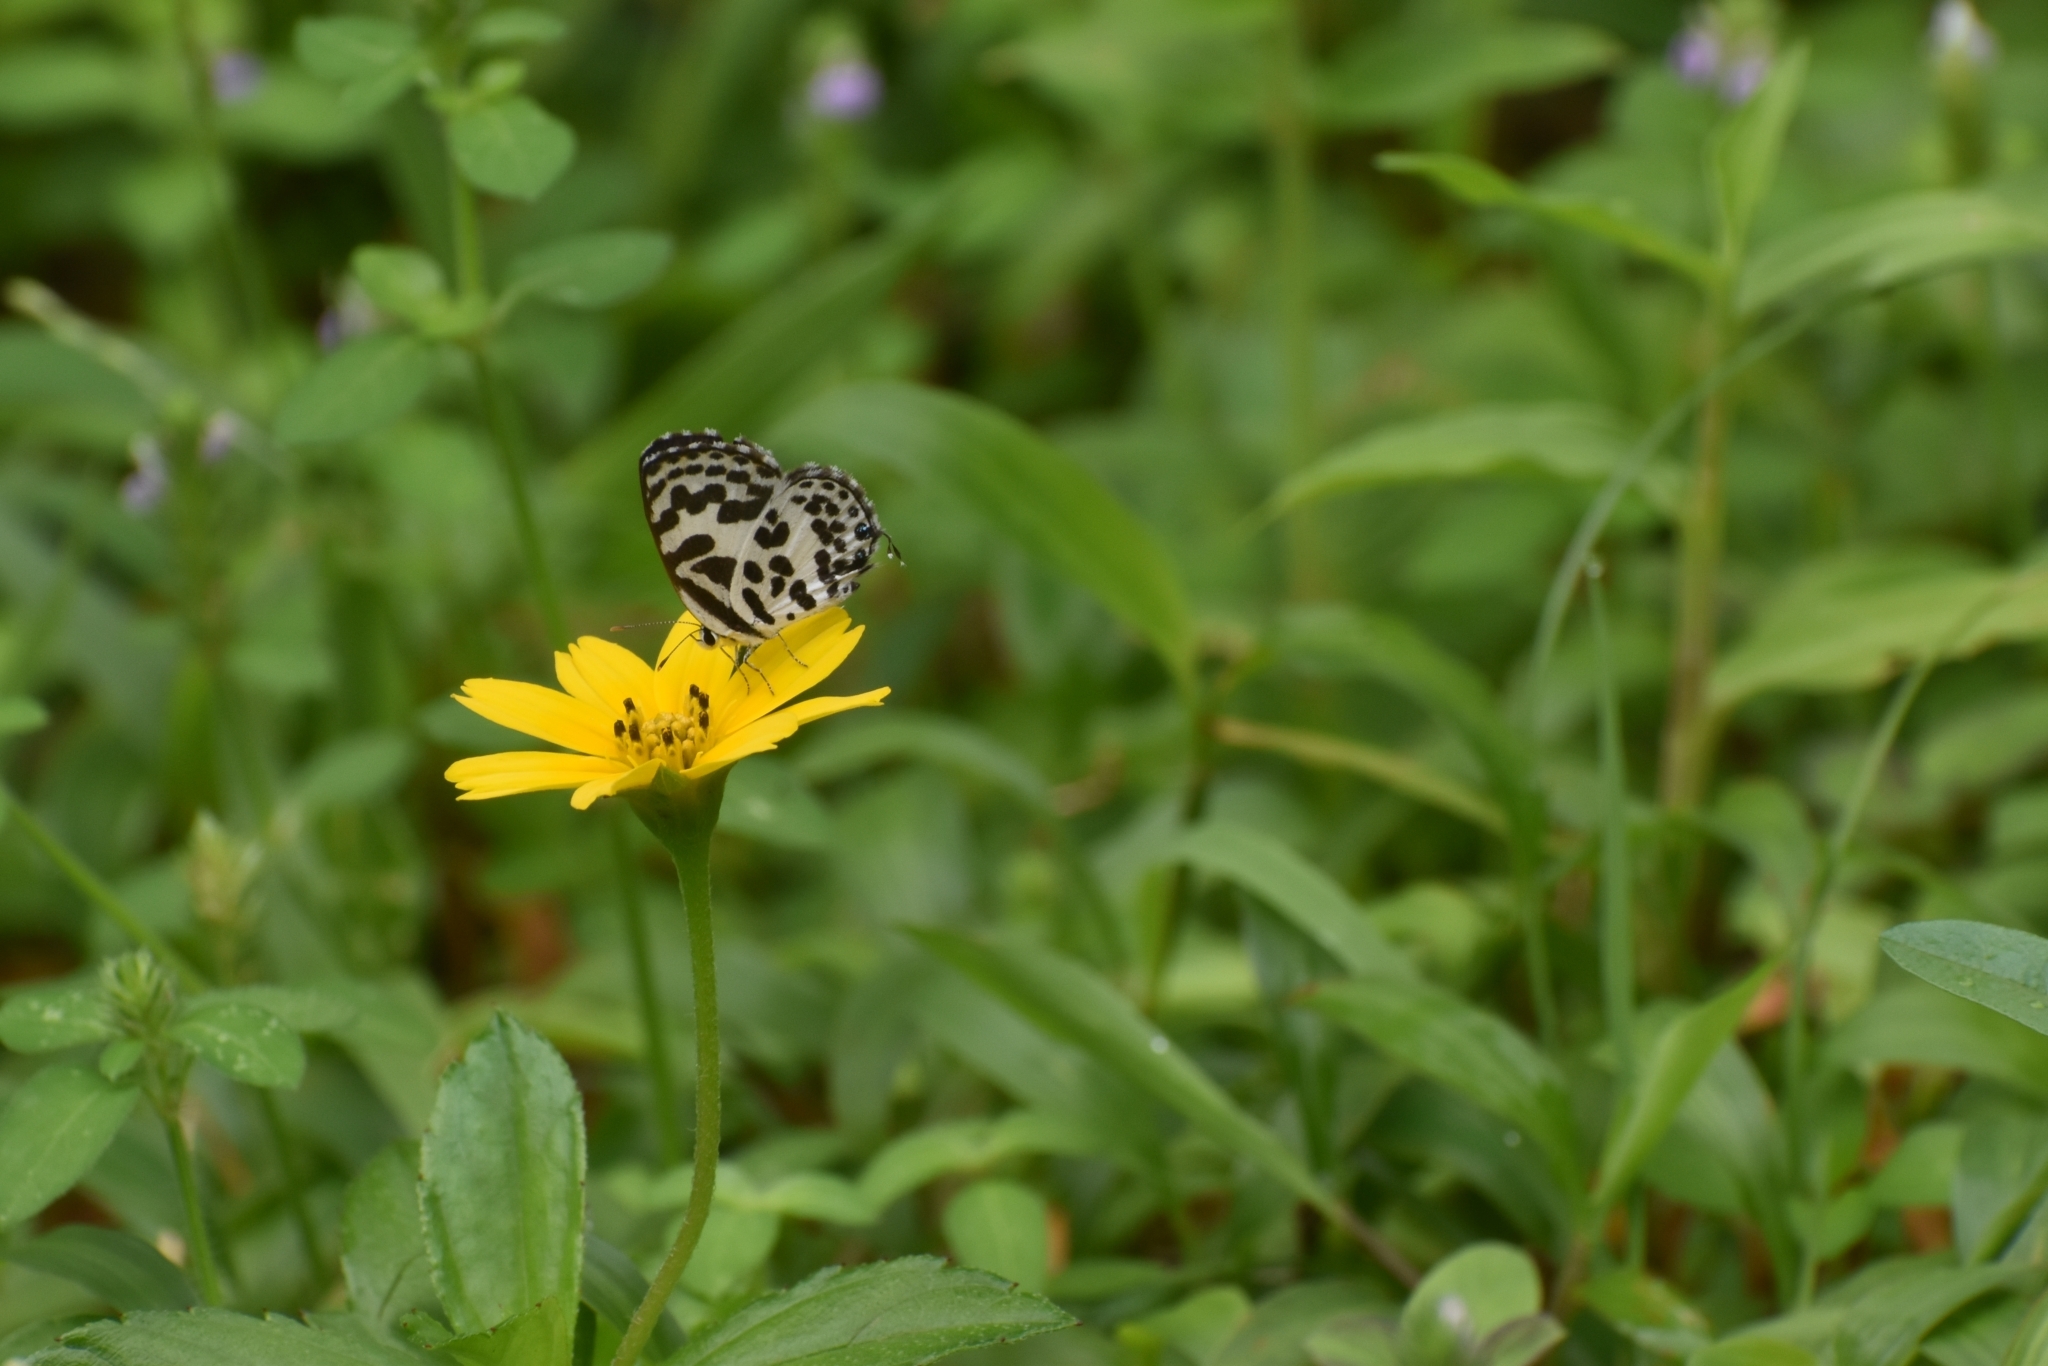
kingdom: Animalia
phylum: Arthropoda
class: Insecta
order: Lepidoptera
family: Lycaenidae
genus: Castalius
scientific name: Castalius rosimon
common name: Common pierrot
